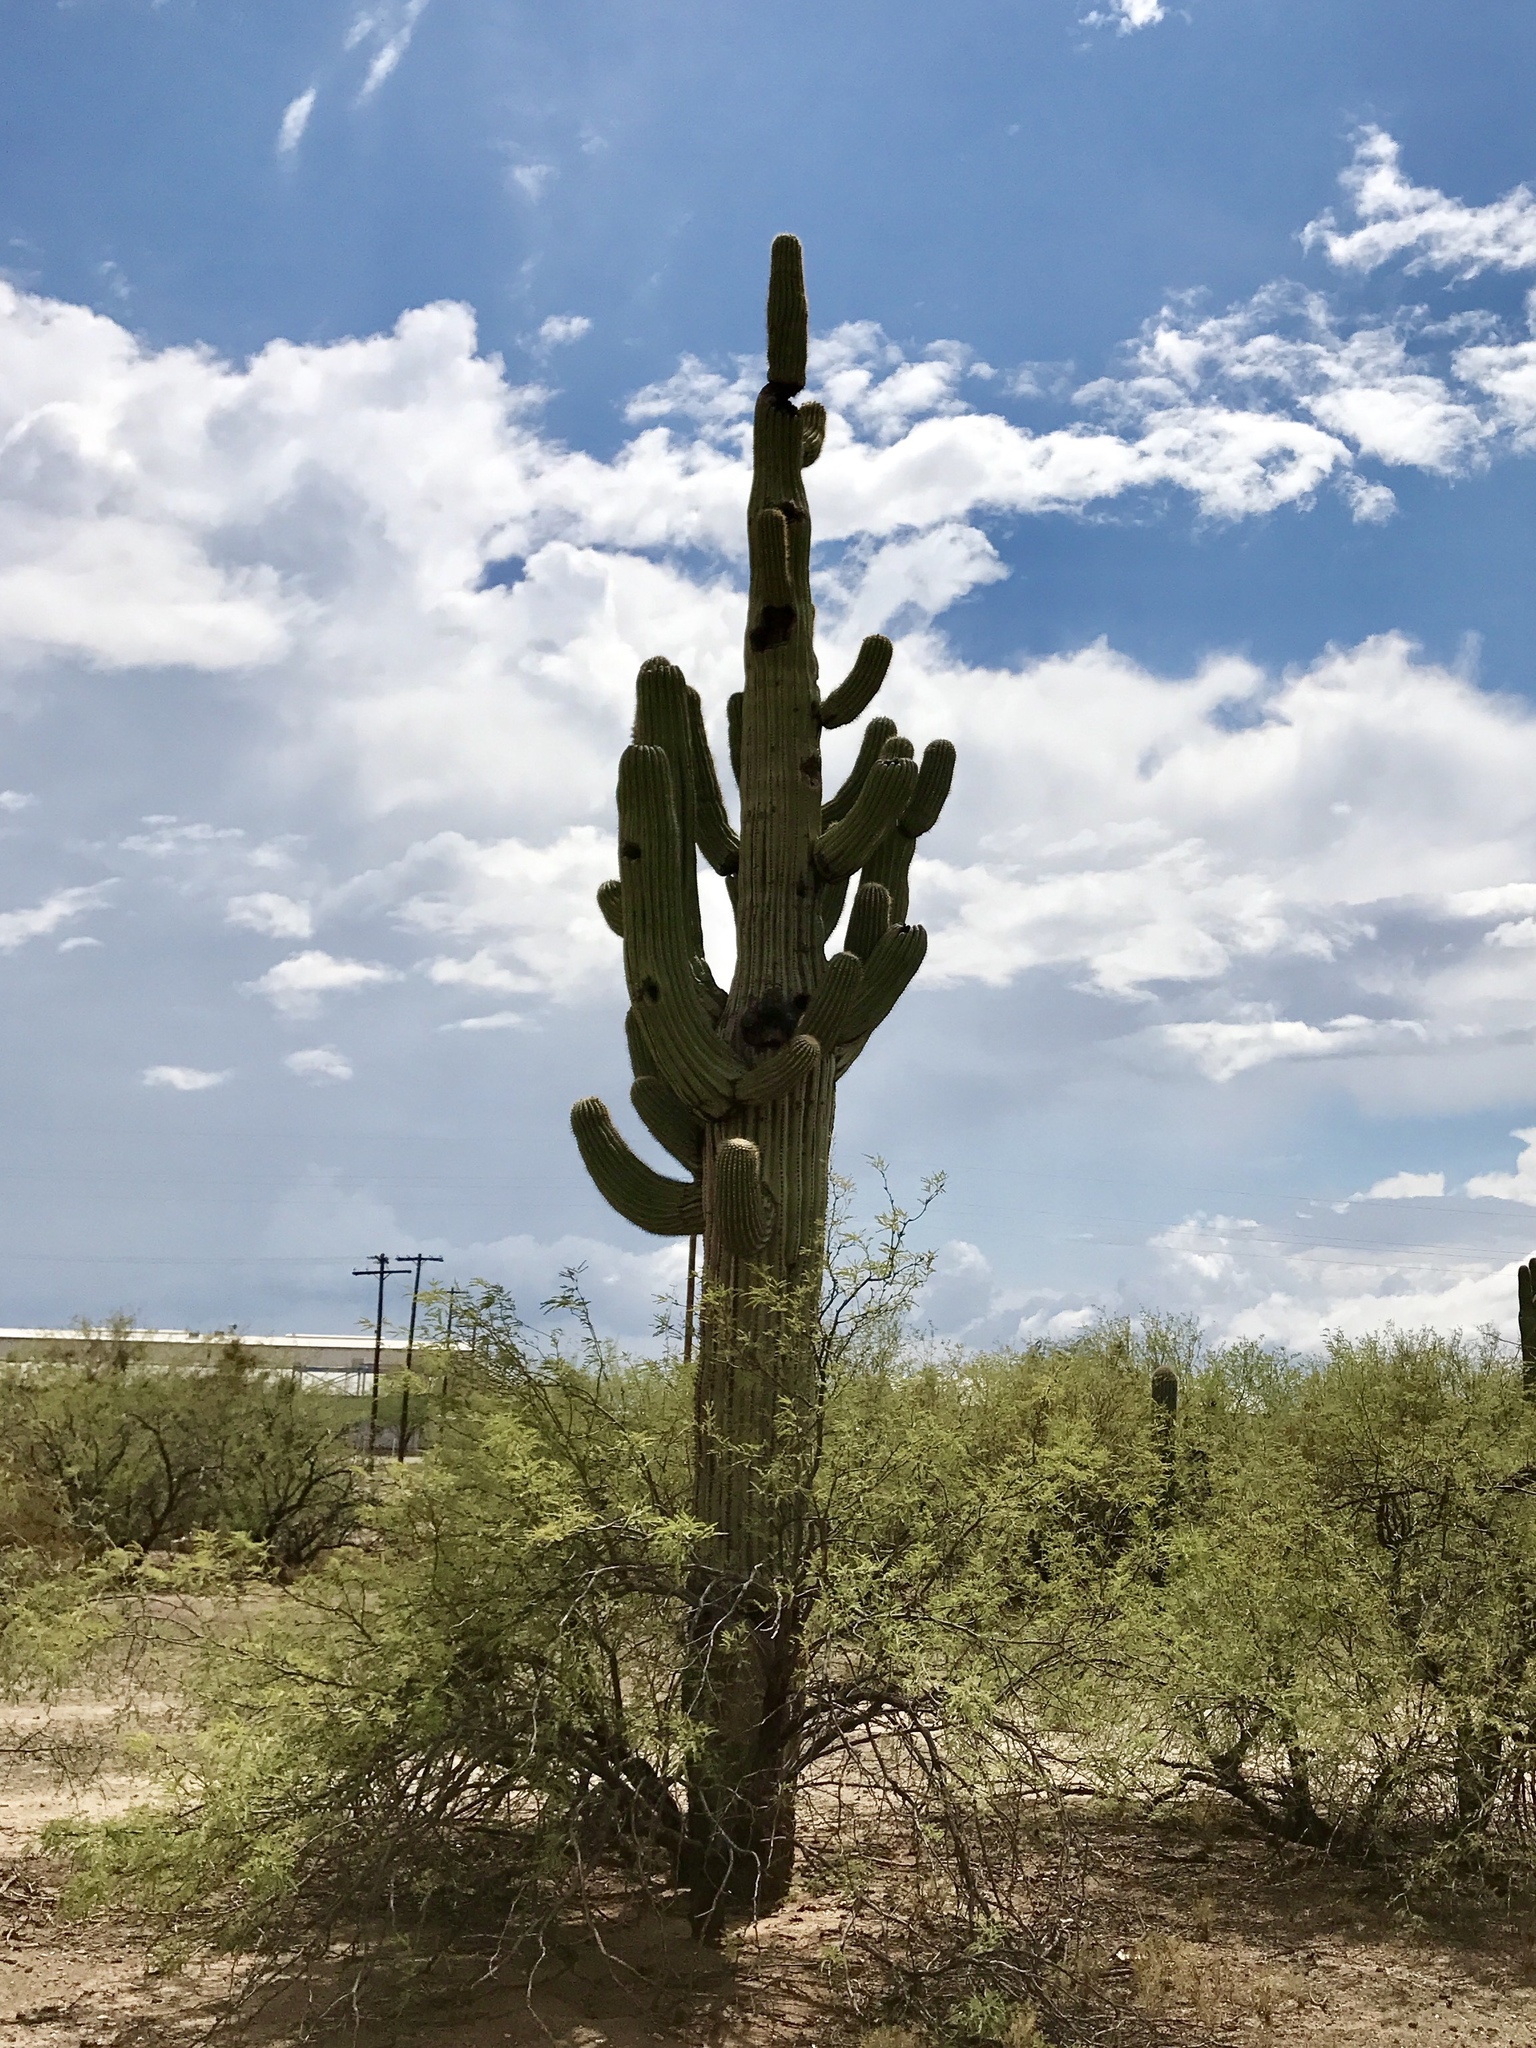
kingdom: Plantae
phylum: Tracheophyta
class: Magnoliopsida
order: Caryophyllales
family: Cactaceae
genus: Carnegiea
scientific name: Carnegiea gigantea
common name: Saguaro
